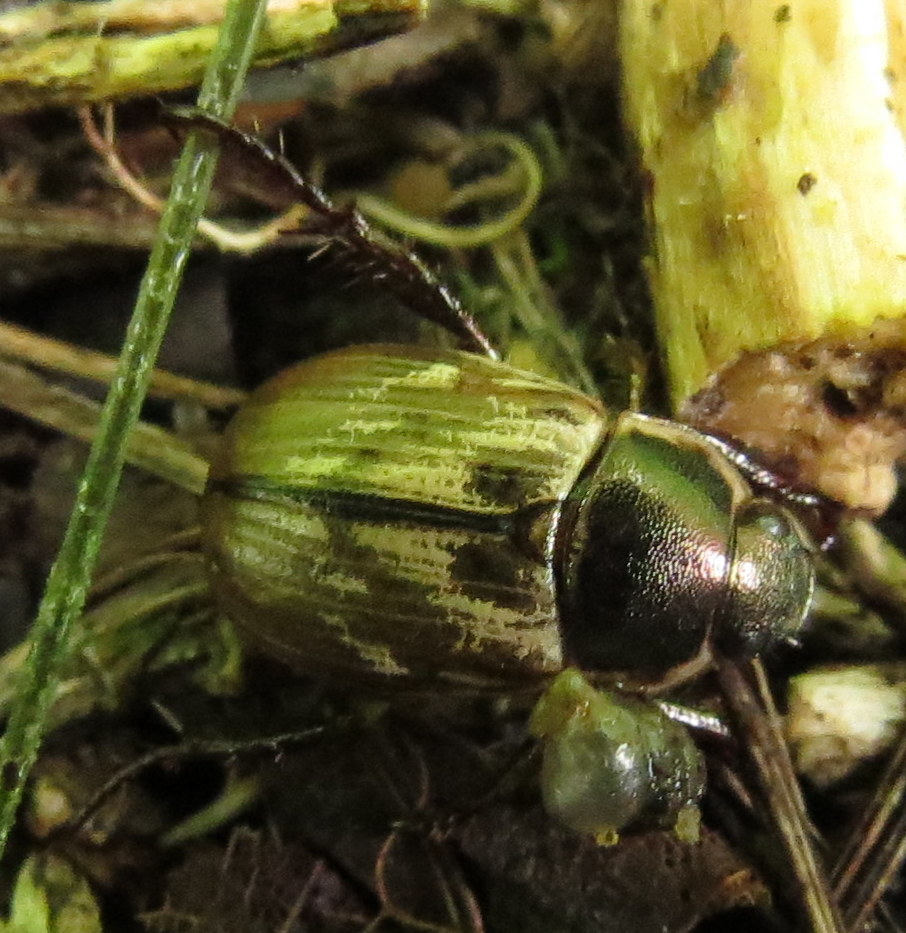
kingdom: Animalia
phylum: Arthropoda
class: Insecta
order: Coleoptera
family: Scarabaeidae
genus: Exomala
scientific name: Exomala orientalis
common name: Oriental beetle
